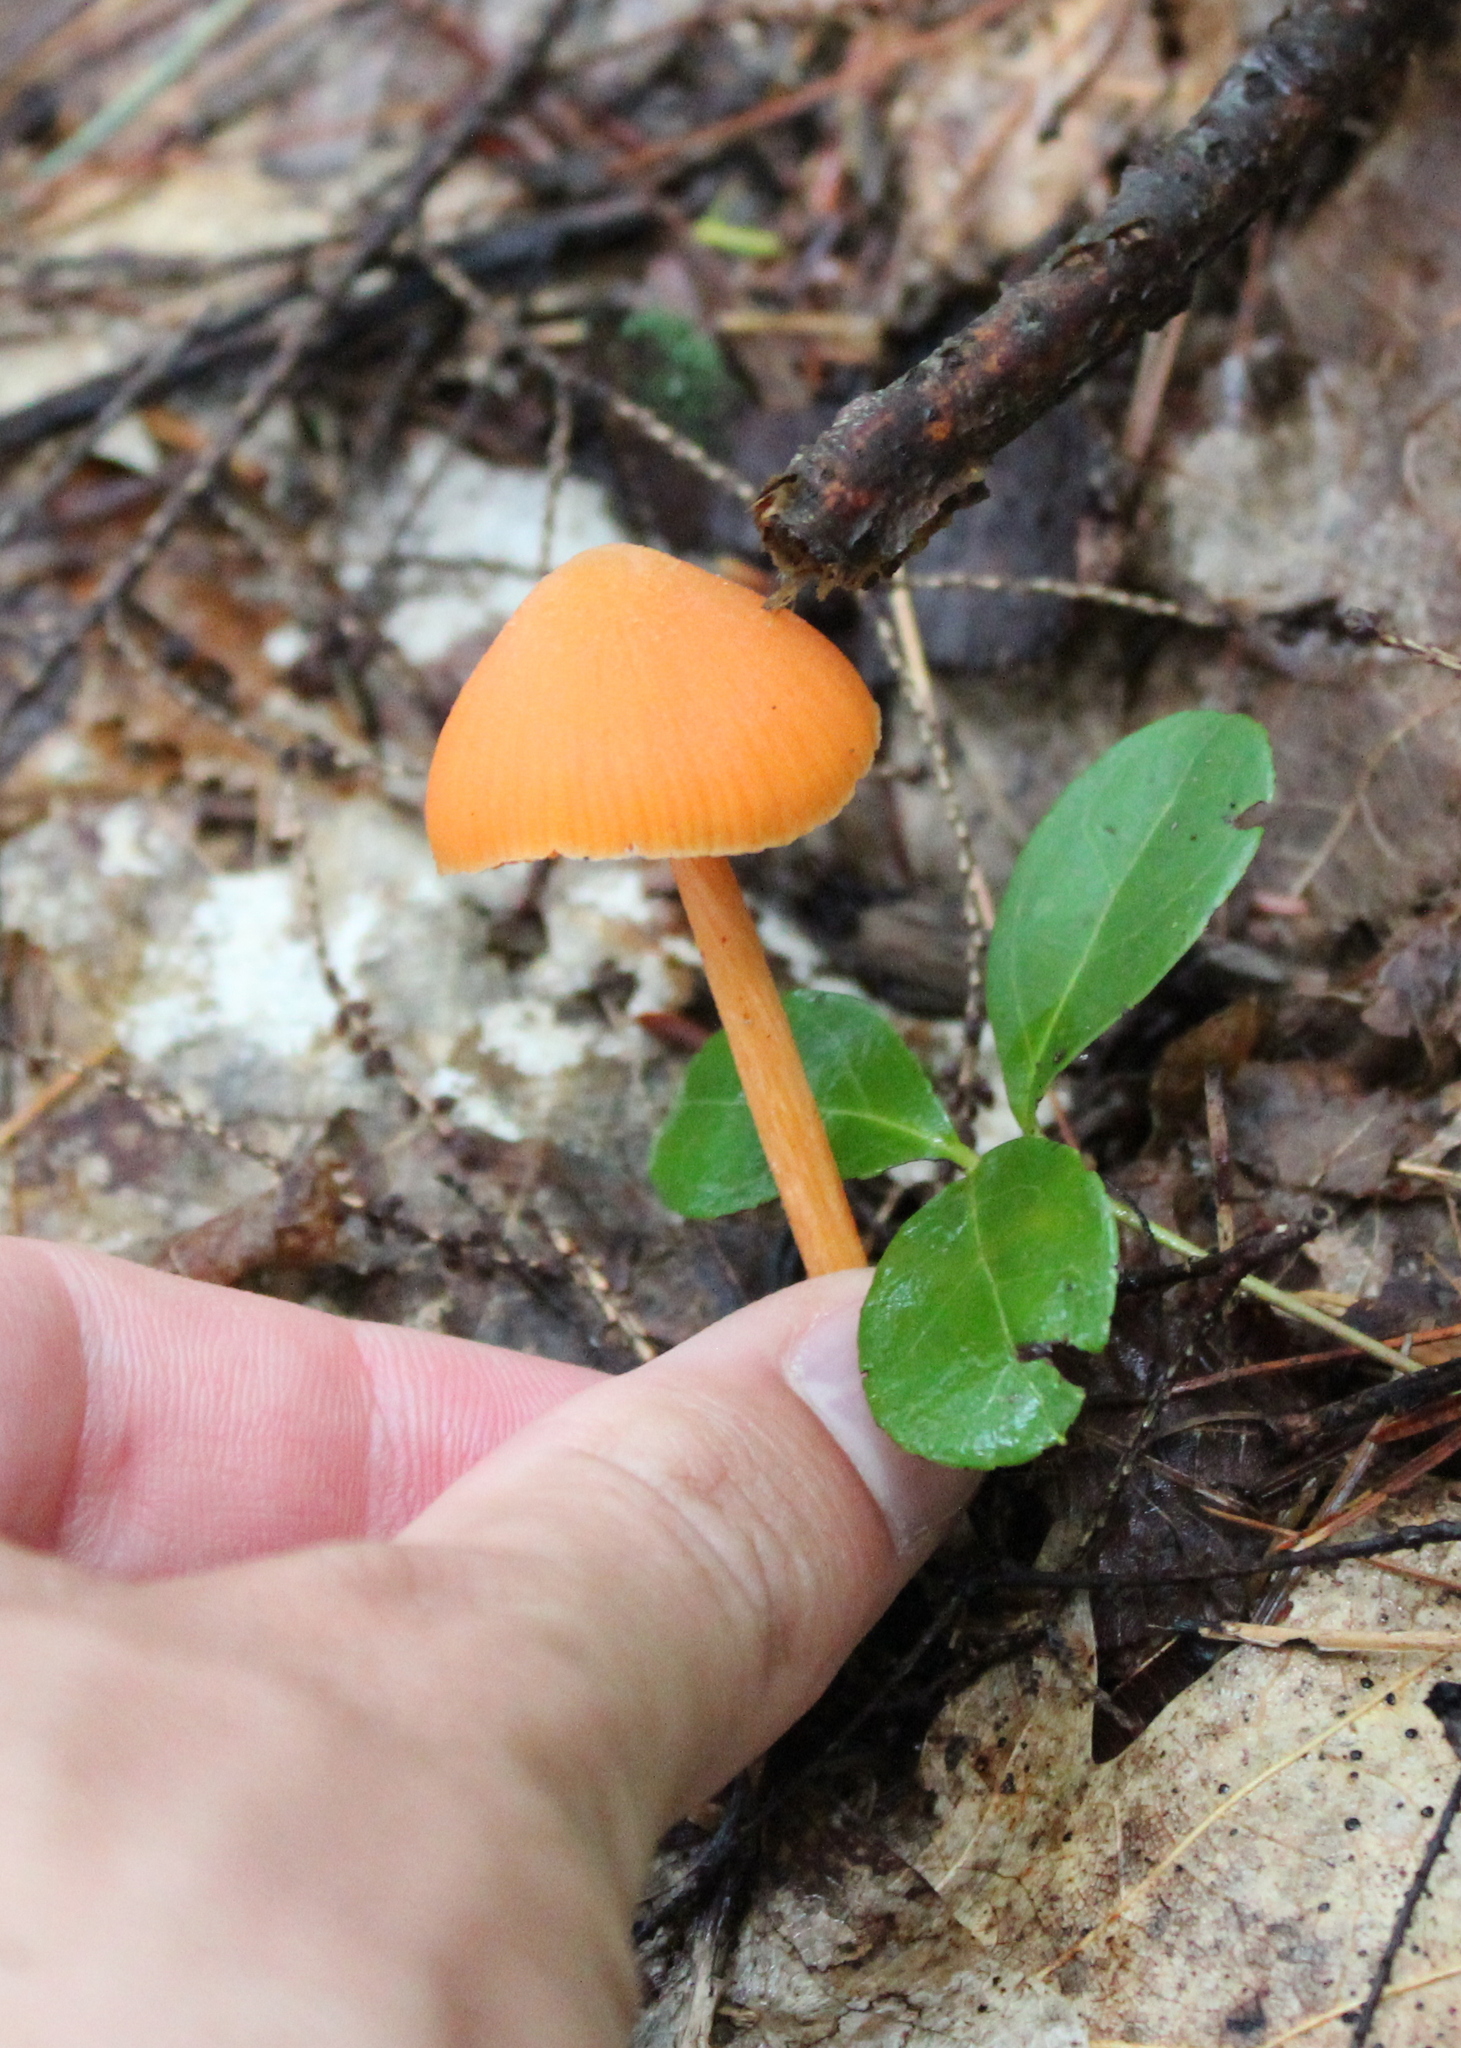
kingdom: Fungi
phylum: Basidiomycota
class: Agaricomycetes
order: Agaricales
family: Entolomataceae
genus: Entoloma
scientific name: Entoloma quadratum
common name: Salmon pinkgill
